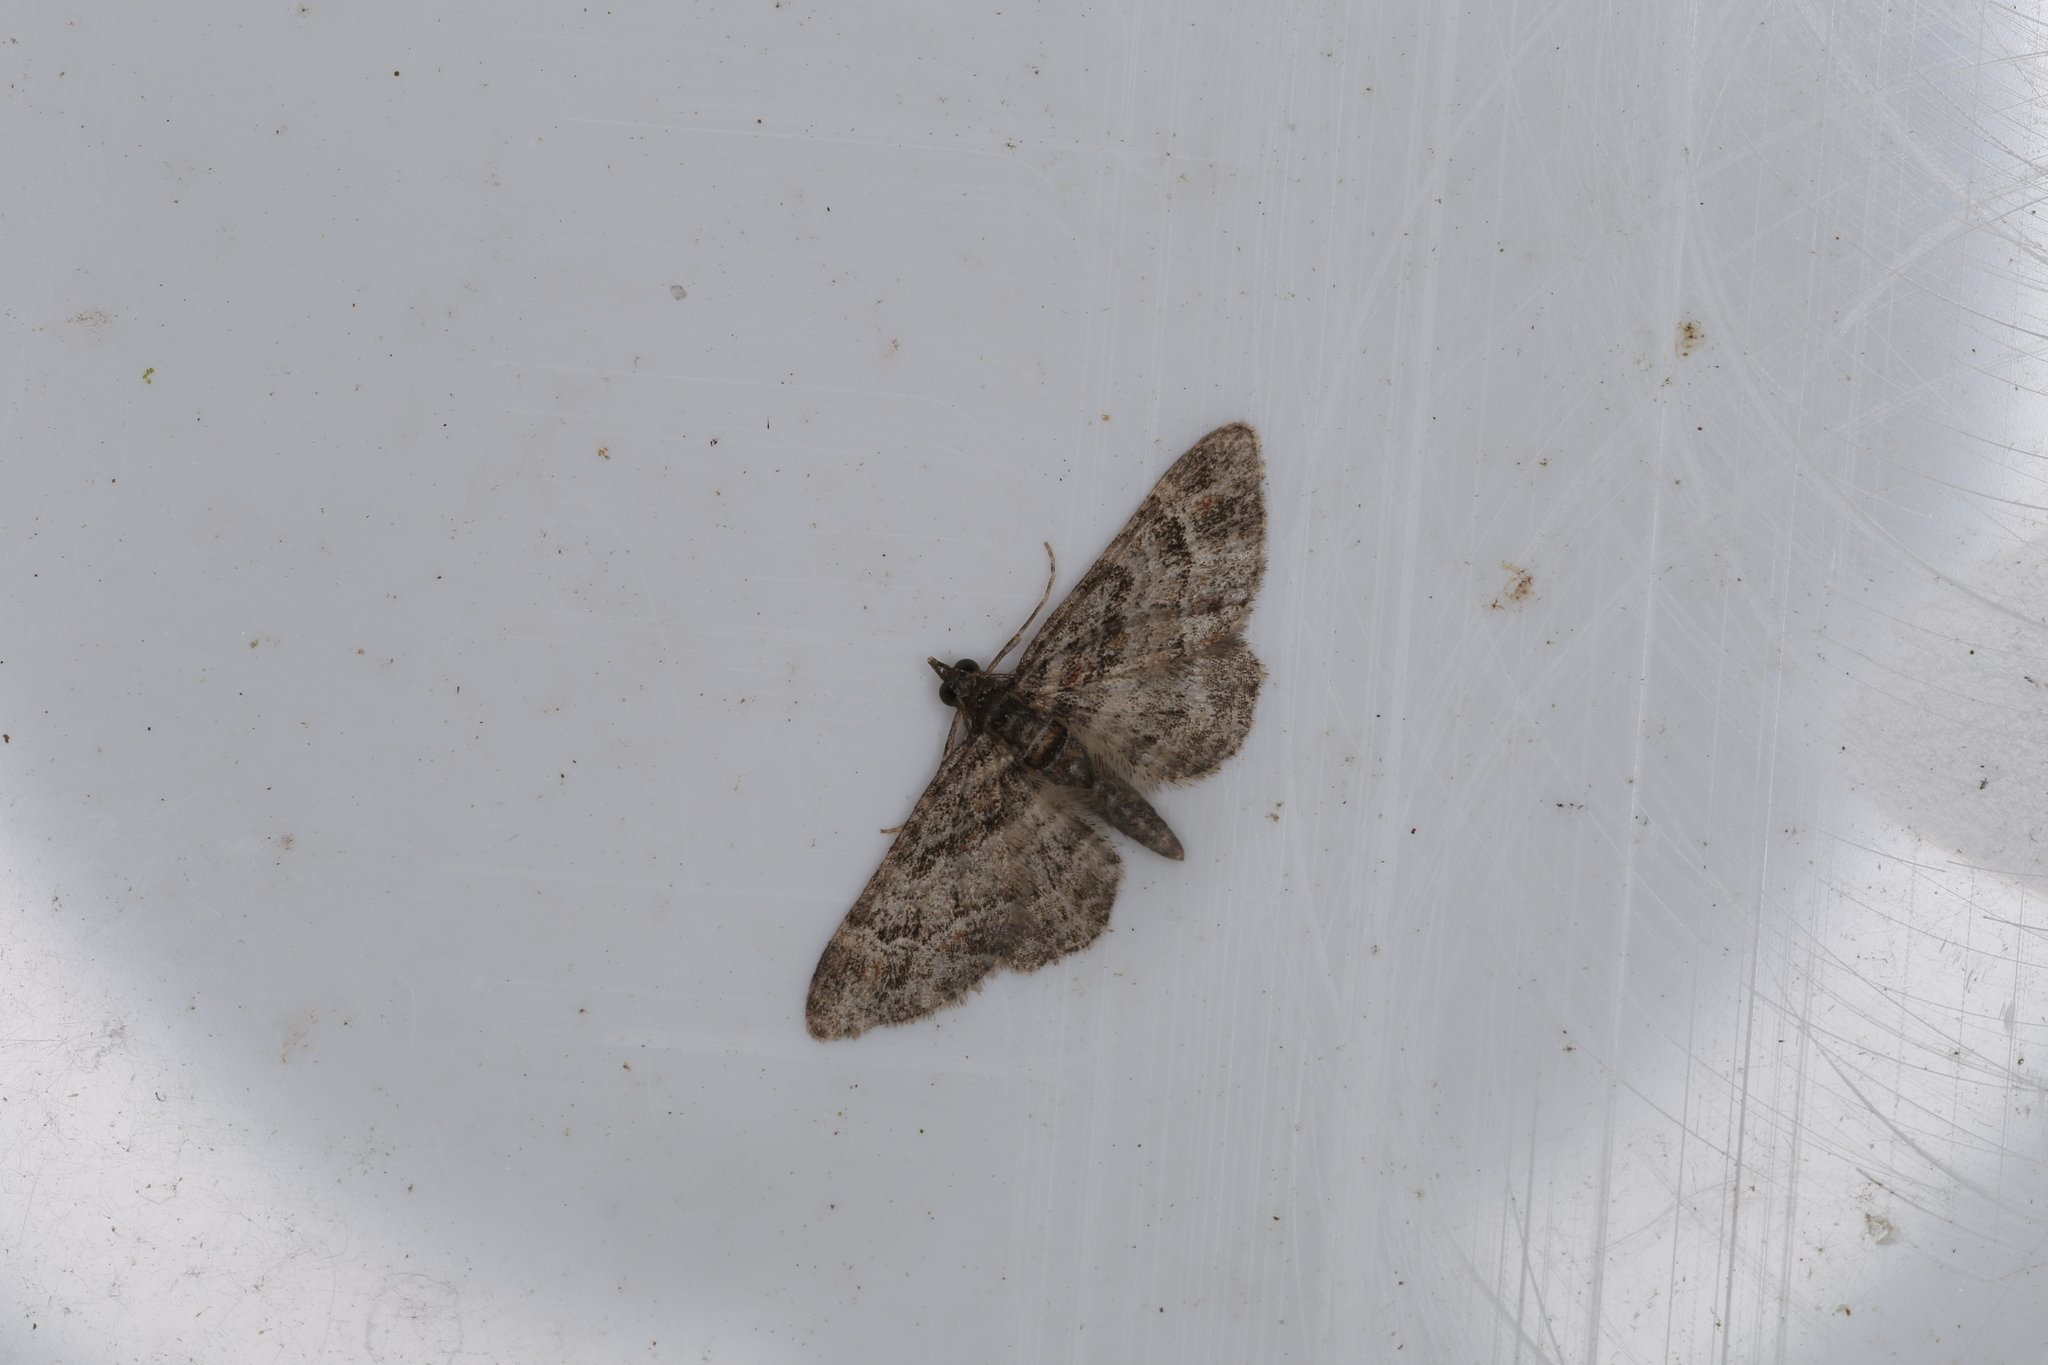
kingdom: Animalia
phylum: Arthropoda
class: Insecta
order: Lepidoptera
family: Geometridae
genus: Gymnoscelis
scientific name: Gymnoscelis rufifasciata
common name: Double-striped pug
